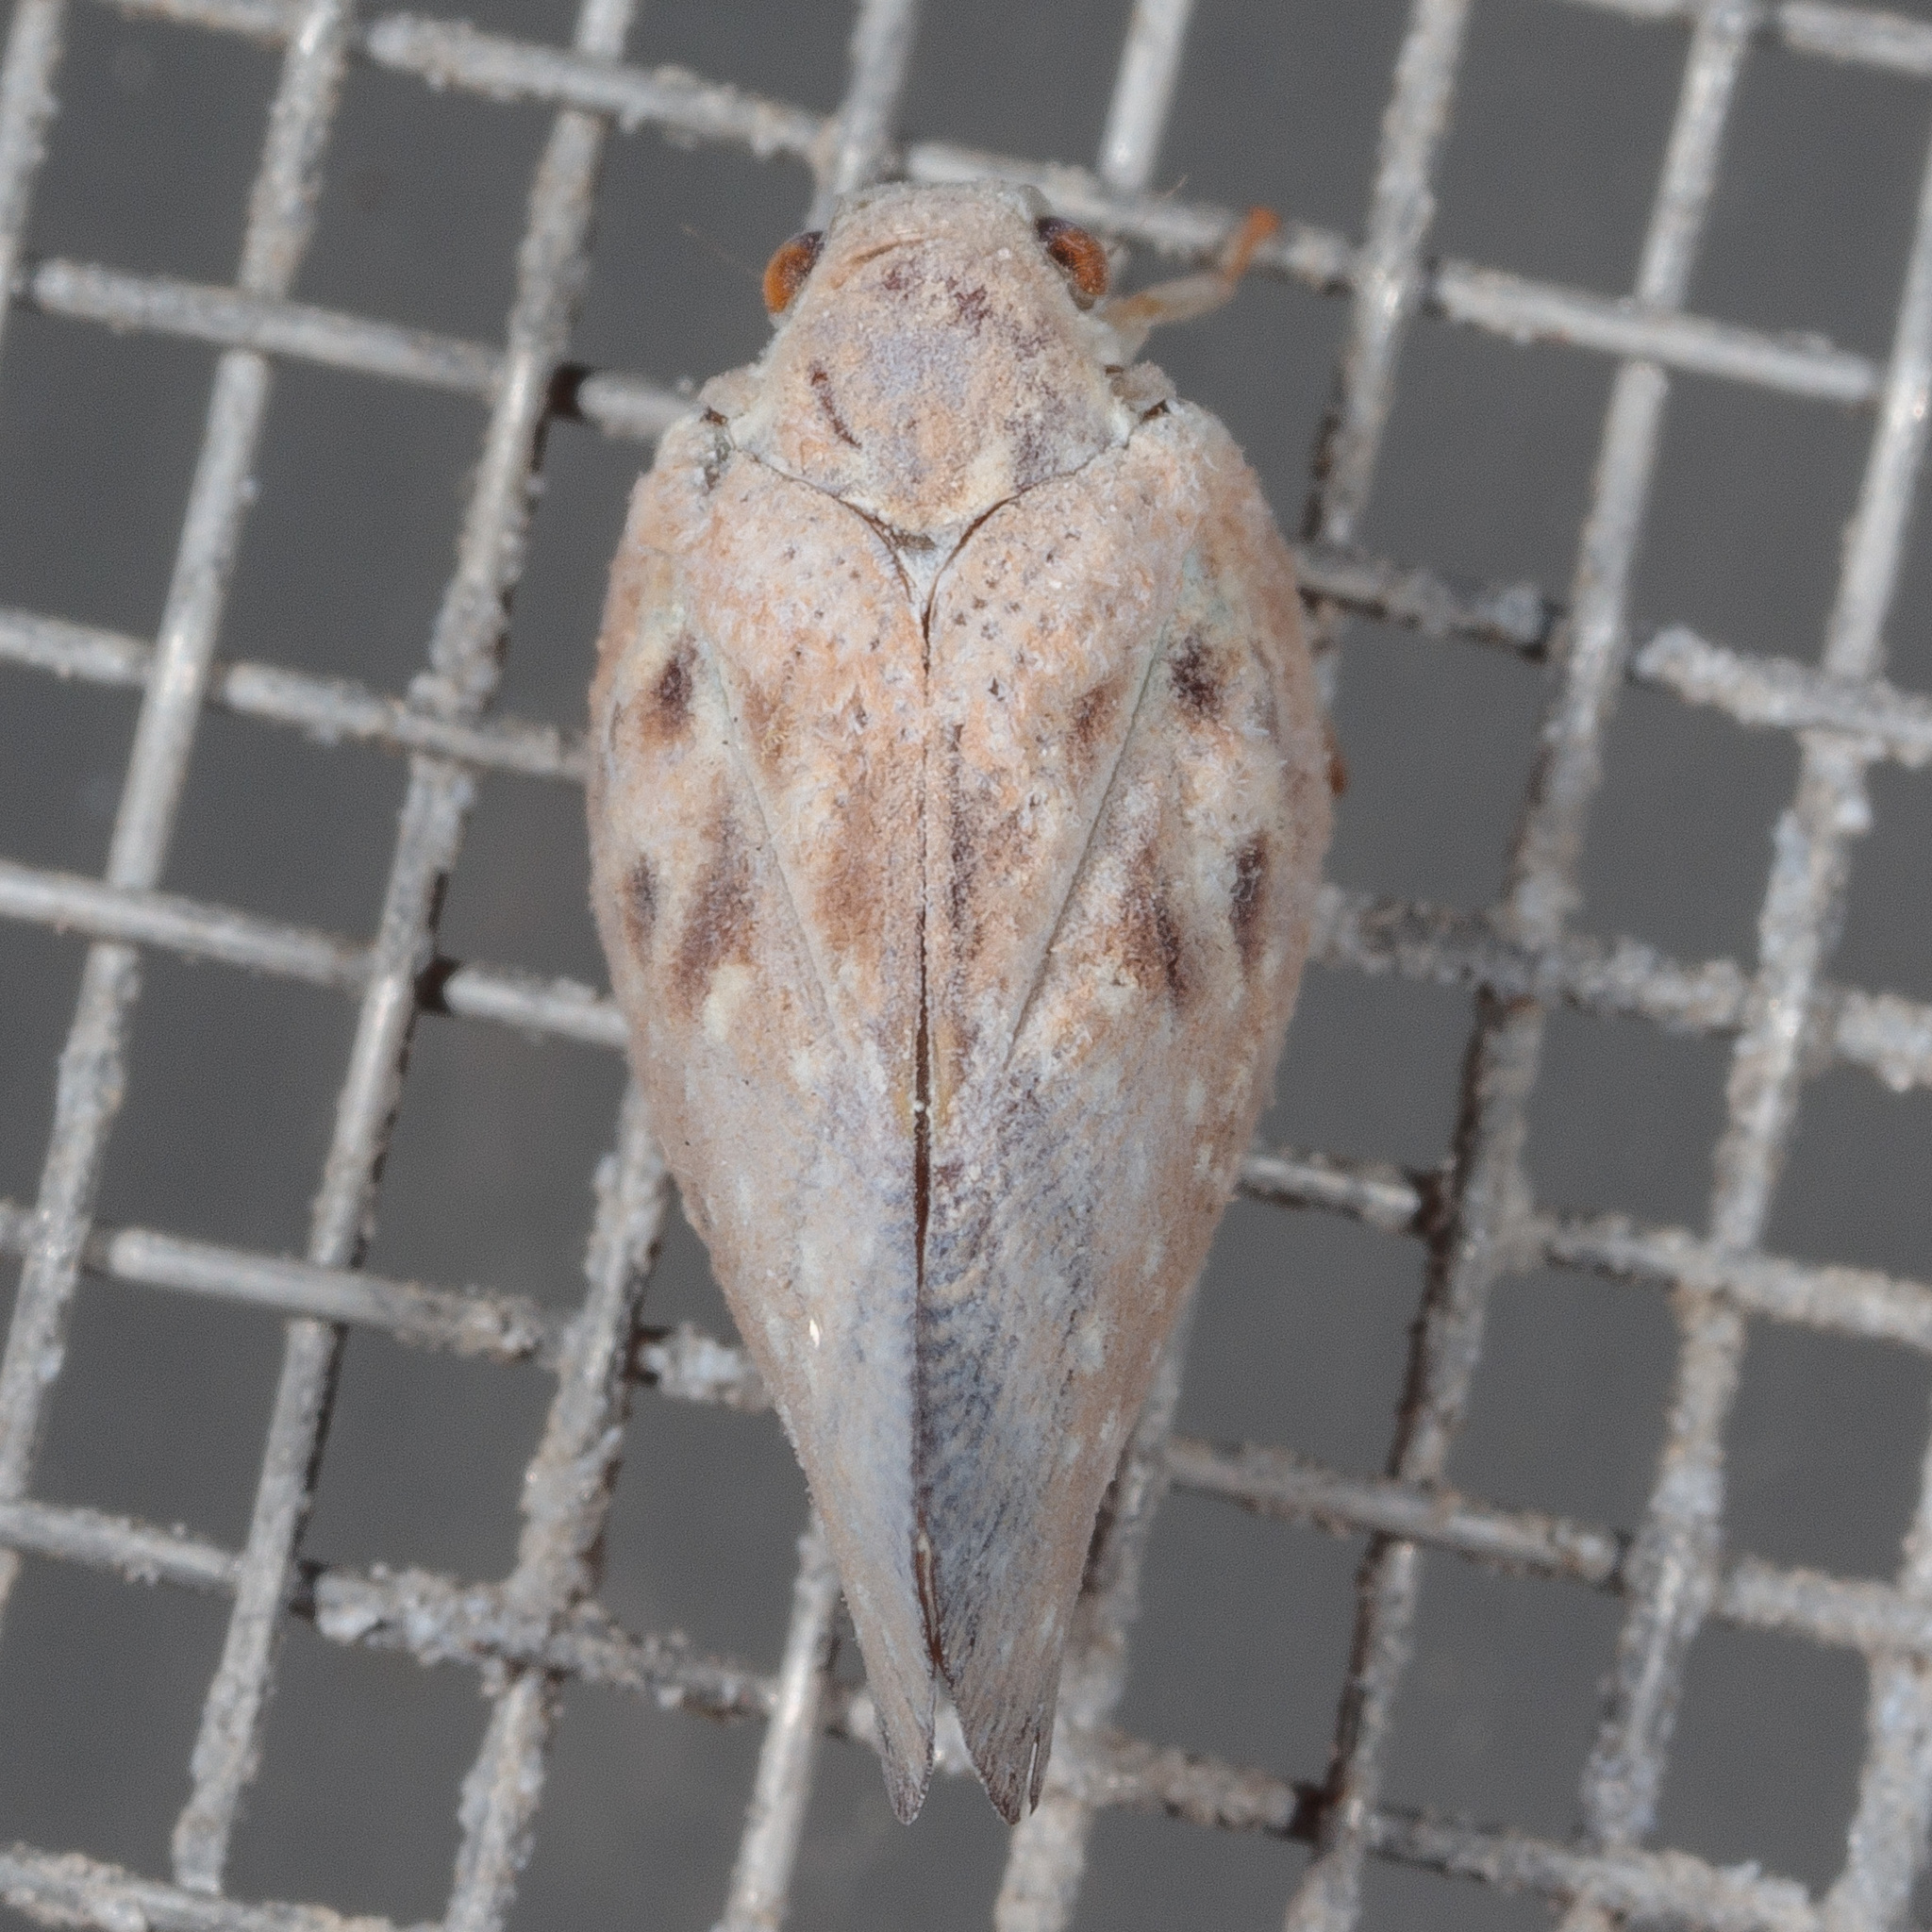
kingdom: Animalia
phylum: Arthropoda
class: Insecta
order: Hemiptera
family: Flatidae
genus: Metcalfa
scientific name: Metcalfa pruinosa
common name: Citrus flatid planthopper
